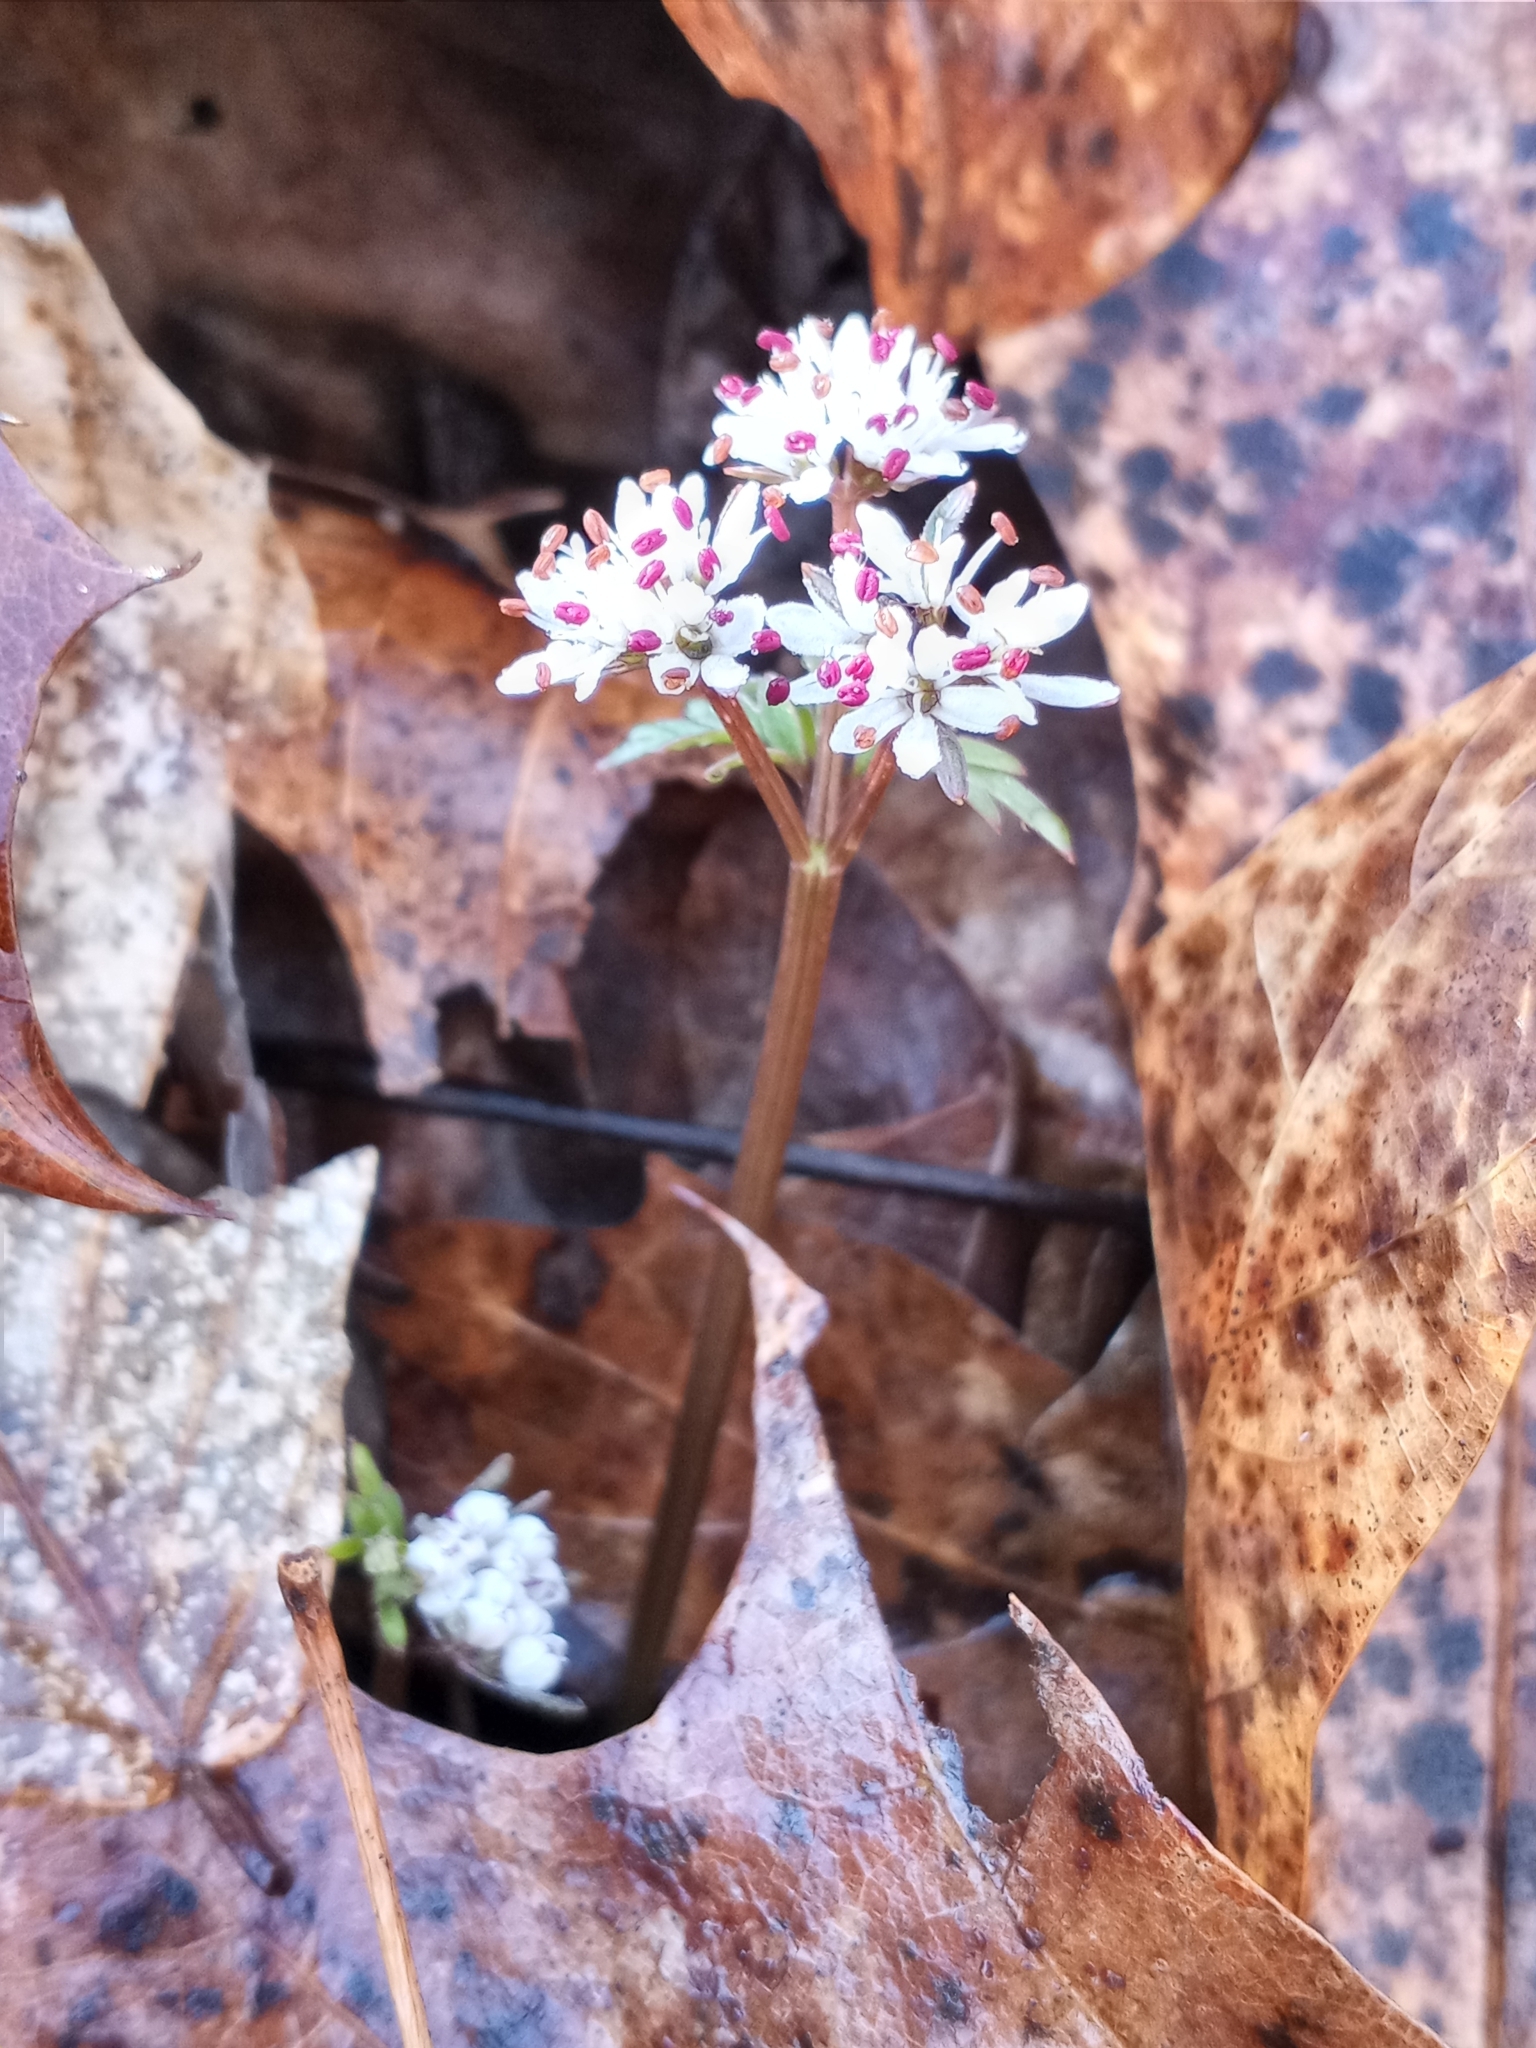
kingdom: Plantae
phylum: Tracheophyta
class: Magnoliopsida
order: Apiales
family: Apiaceae
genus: Erigenia
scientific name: Erigenia bulbosa
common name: Pepper-and-salt
